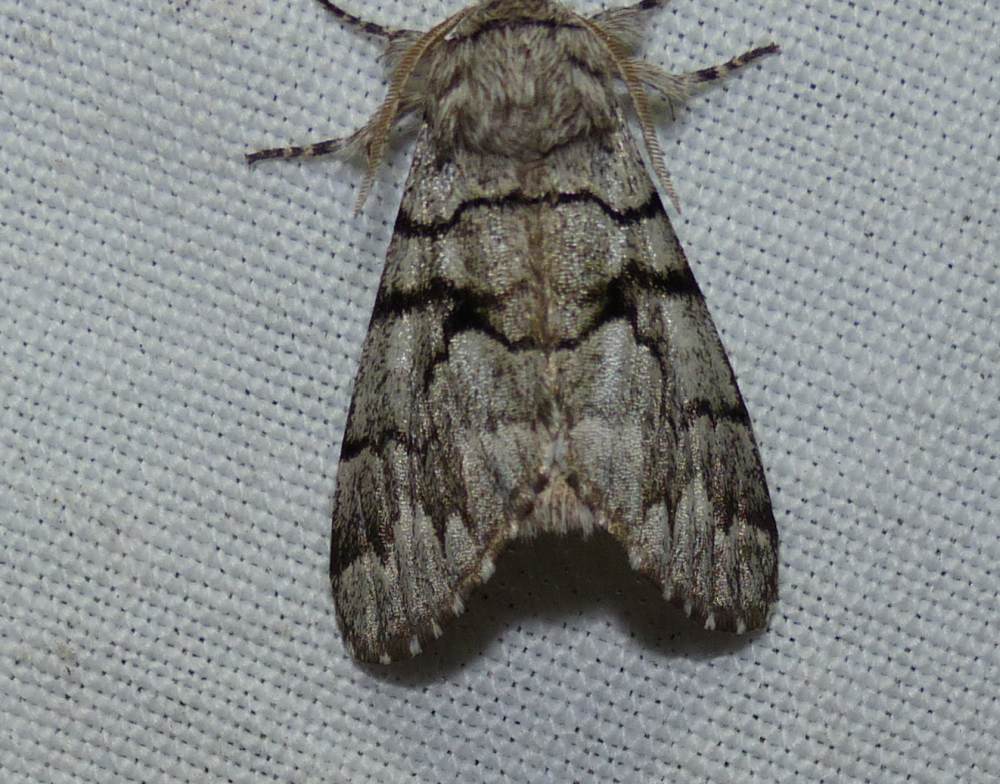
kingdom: Animalia
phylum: Arthropoda
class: Insecta
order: Lepidoptera
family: Noctuidae
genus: Panthea
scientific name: Panthea furcilla
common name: Eastern panthea moth
